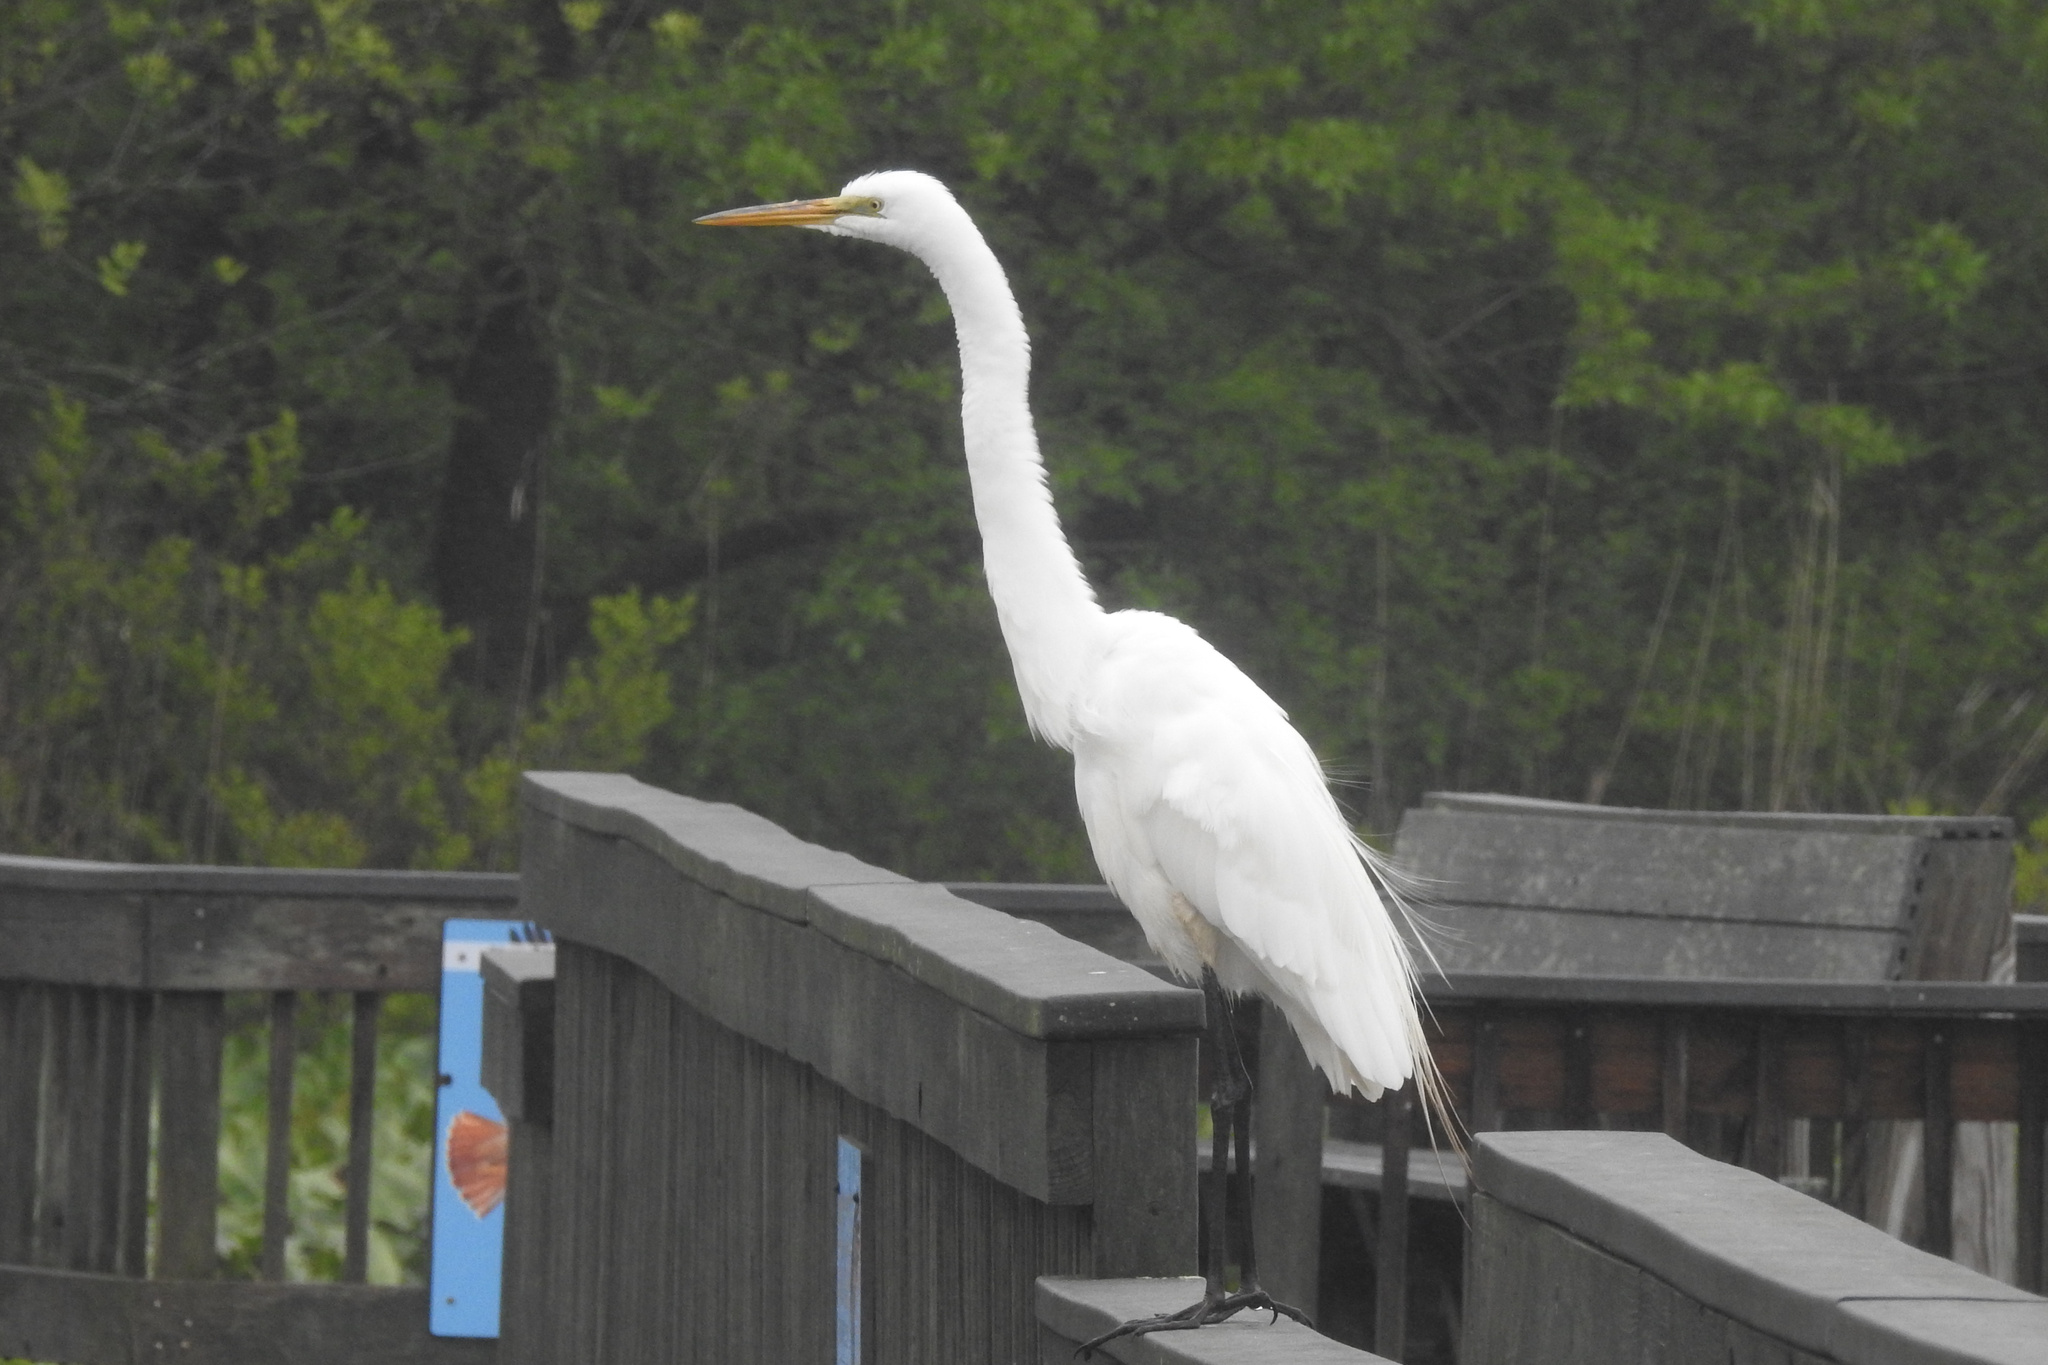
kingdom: Animalia
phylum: Chordata
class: Aves
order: Pelecaniformes
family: Ardeidae
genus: Ardea
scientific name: Ardea alba
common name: Great egret
